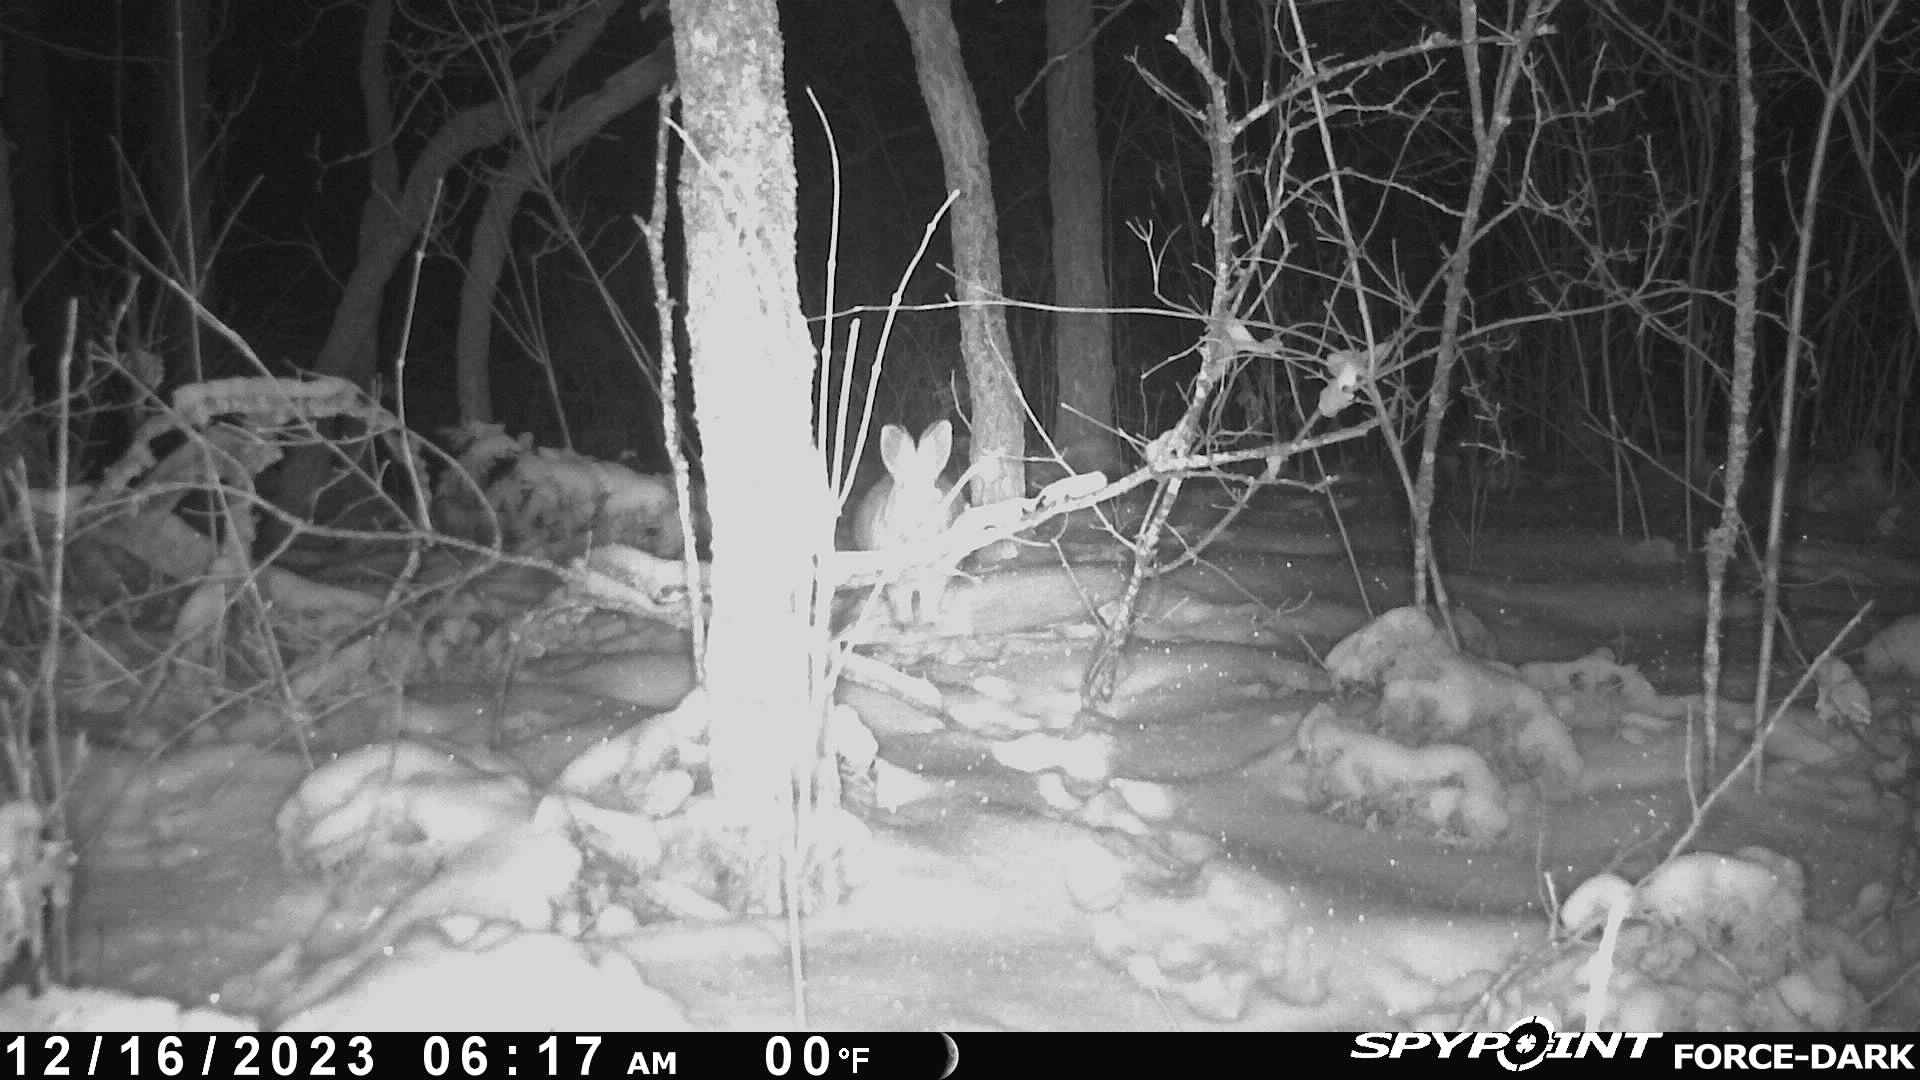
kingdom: Animalia
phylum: Chordata
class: Mammalia
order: Lagomorpha
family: Leporidae
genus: Lepus
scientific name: Lepus americanus
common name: Snowshoe hare
